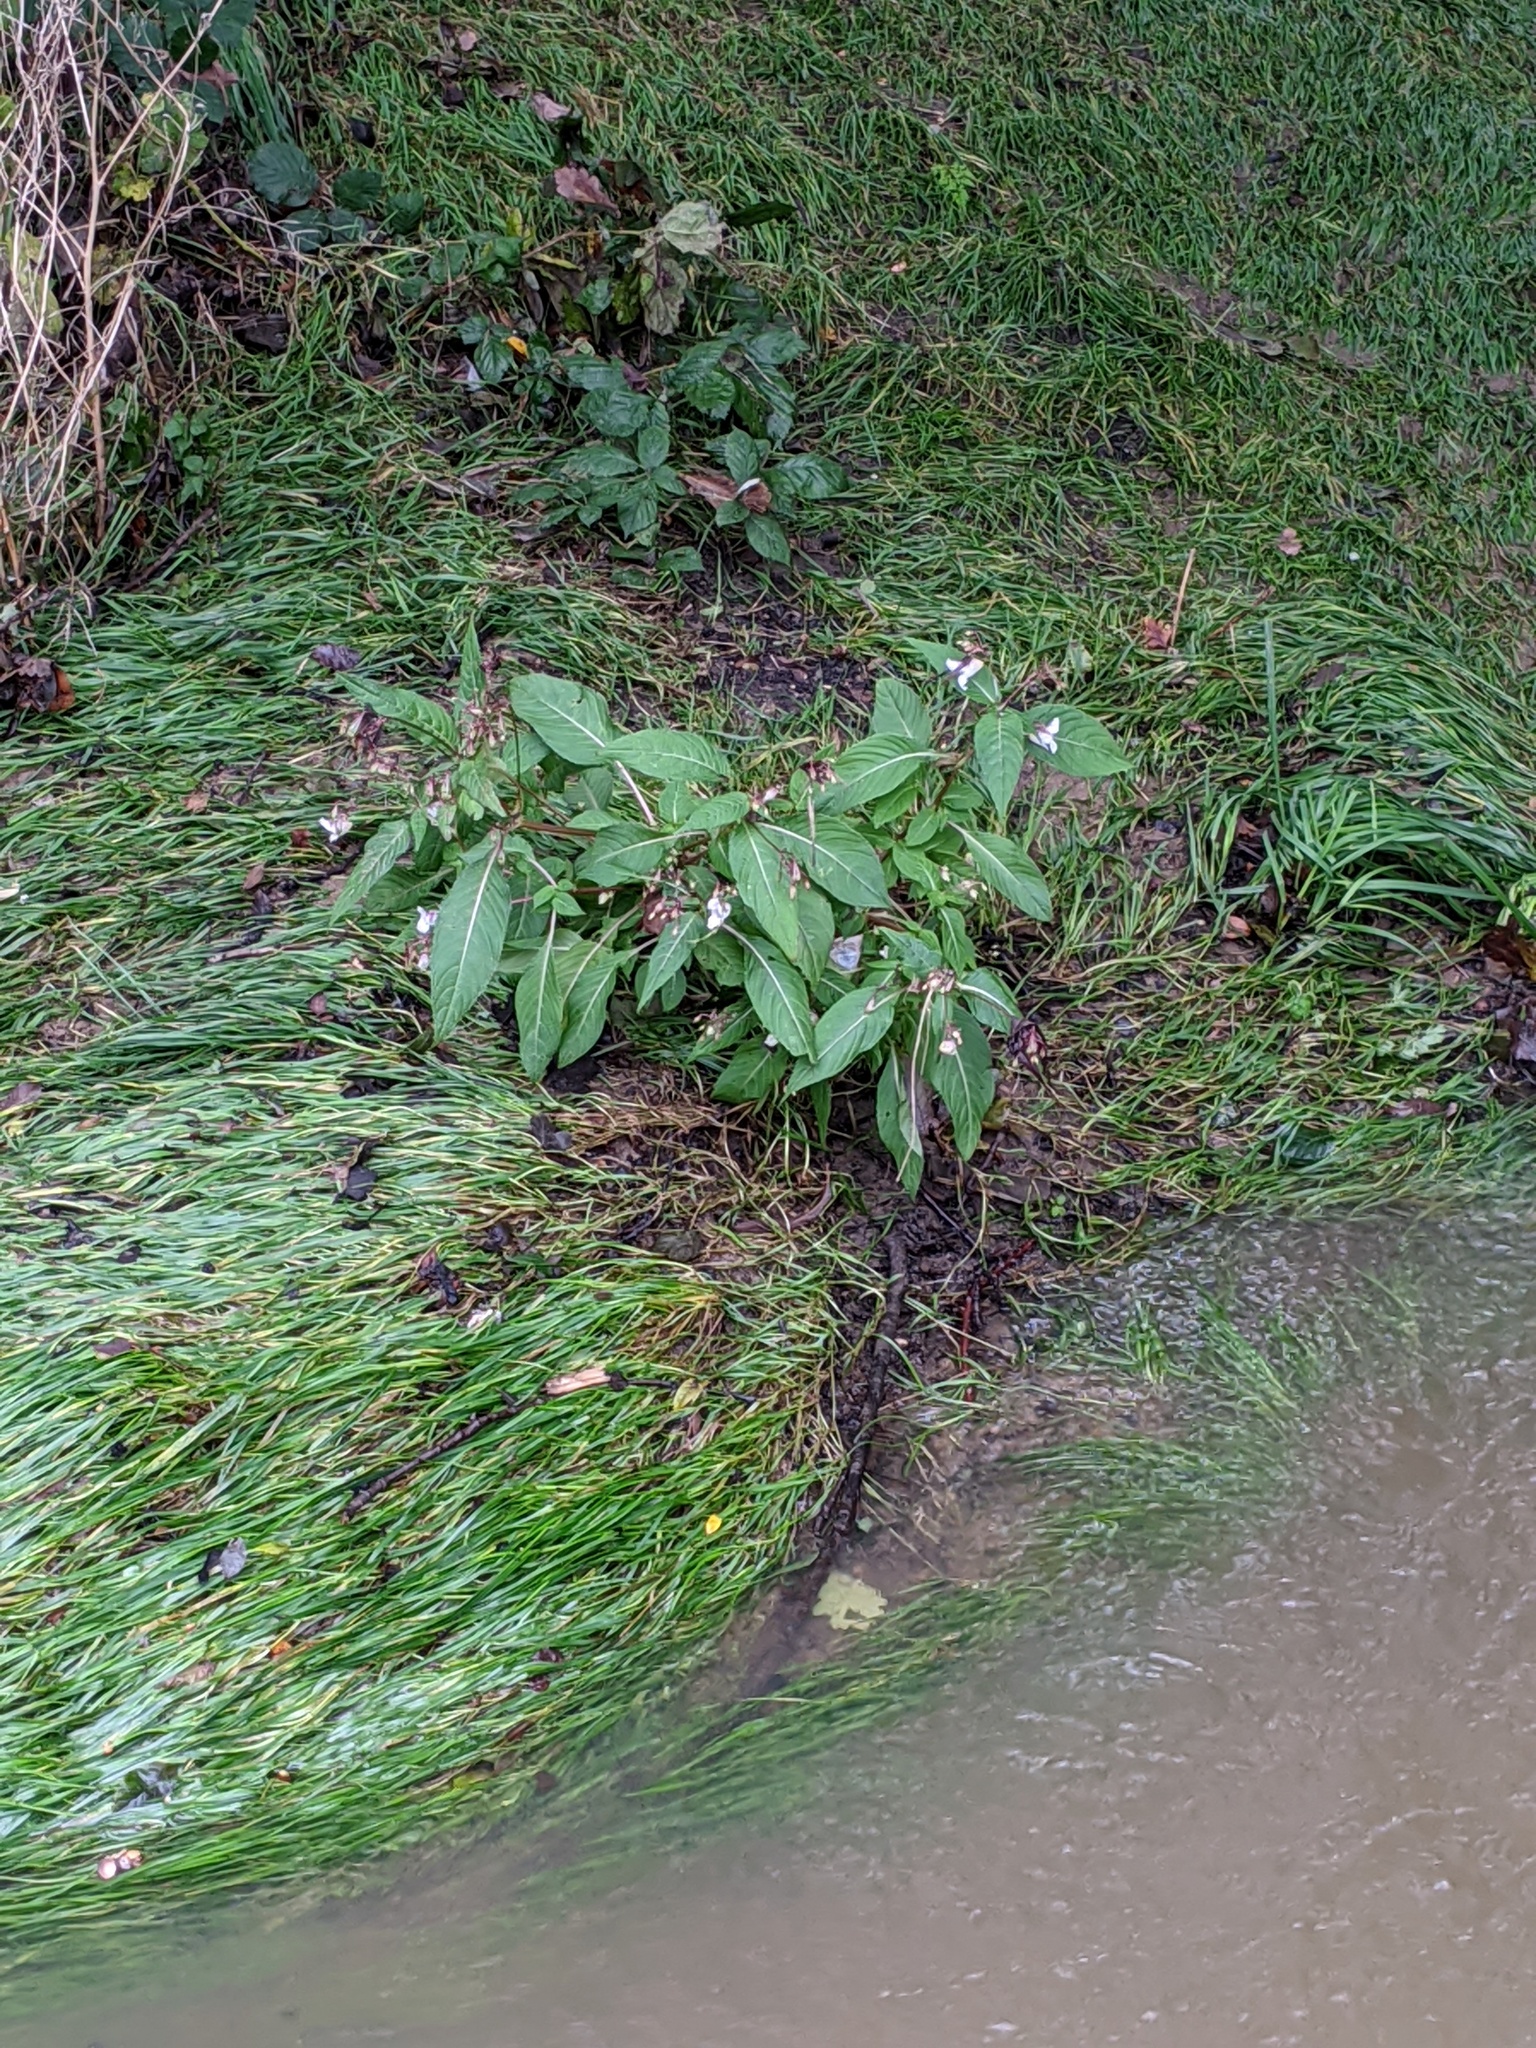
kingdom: Plantae
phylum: Tracheophyta
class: Magnoliopsida
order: Ericales
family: Balsaminaceae
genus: Impatiens
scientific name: Impatiens glandulifera
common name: Himalayan balsam
